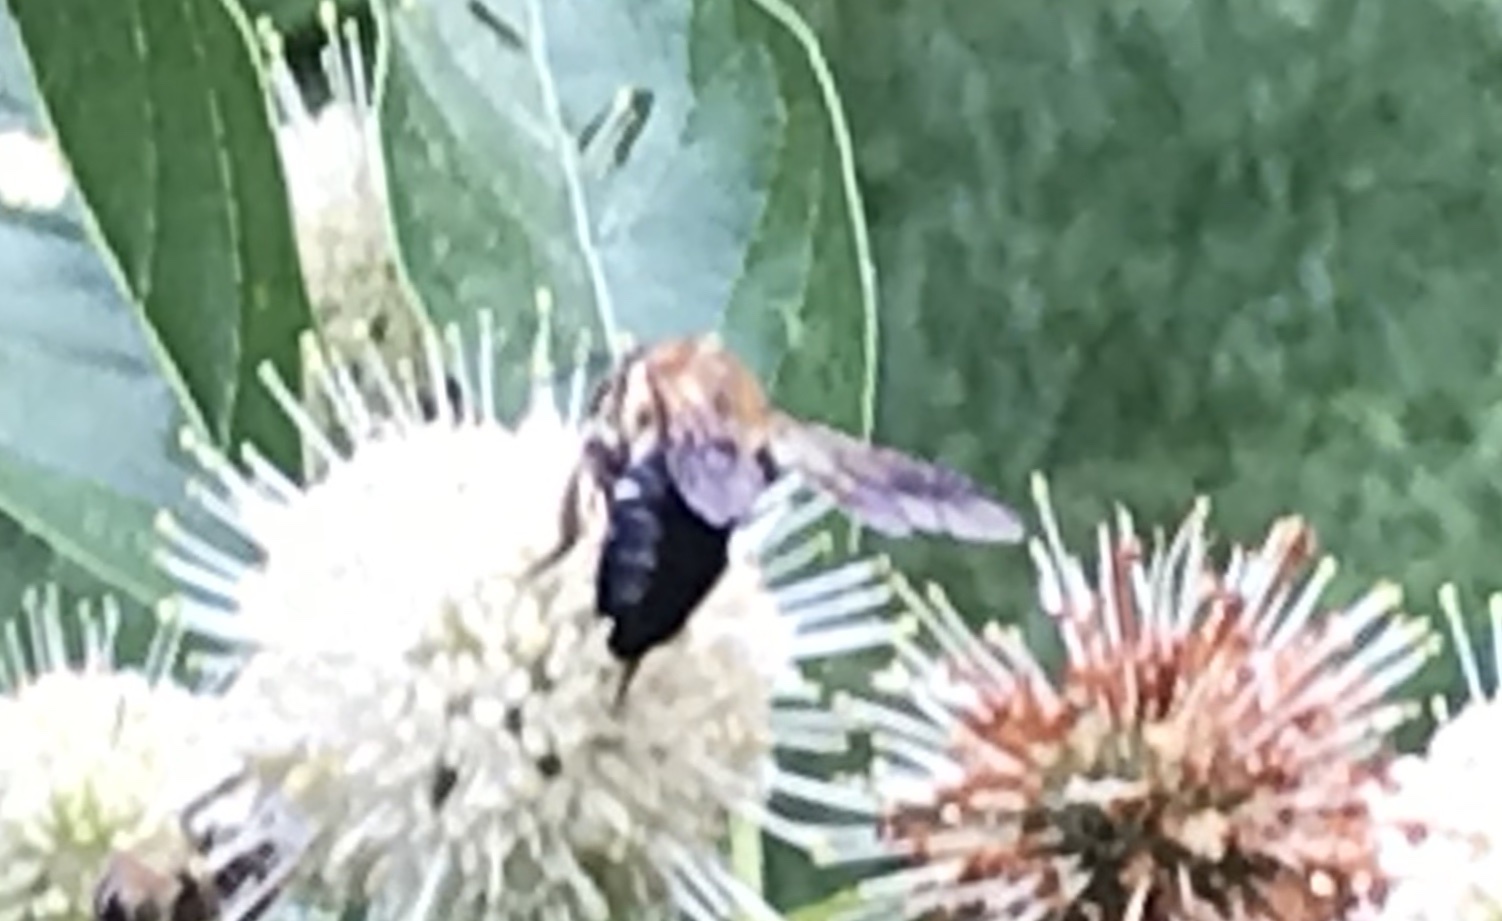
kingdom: Animalia
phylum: Arthropoda
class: Insecta
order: Hymenoptera
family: Megachilidae
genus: Megachile
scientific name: Megachile sculpturalis
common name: Sculptured resin bee
